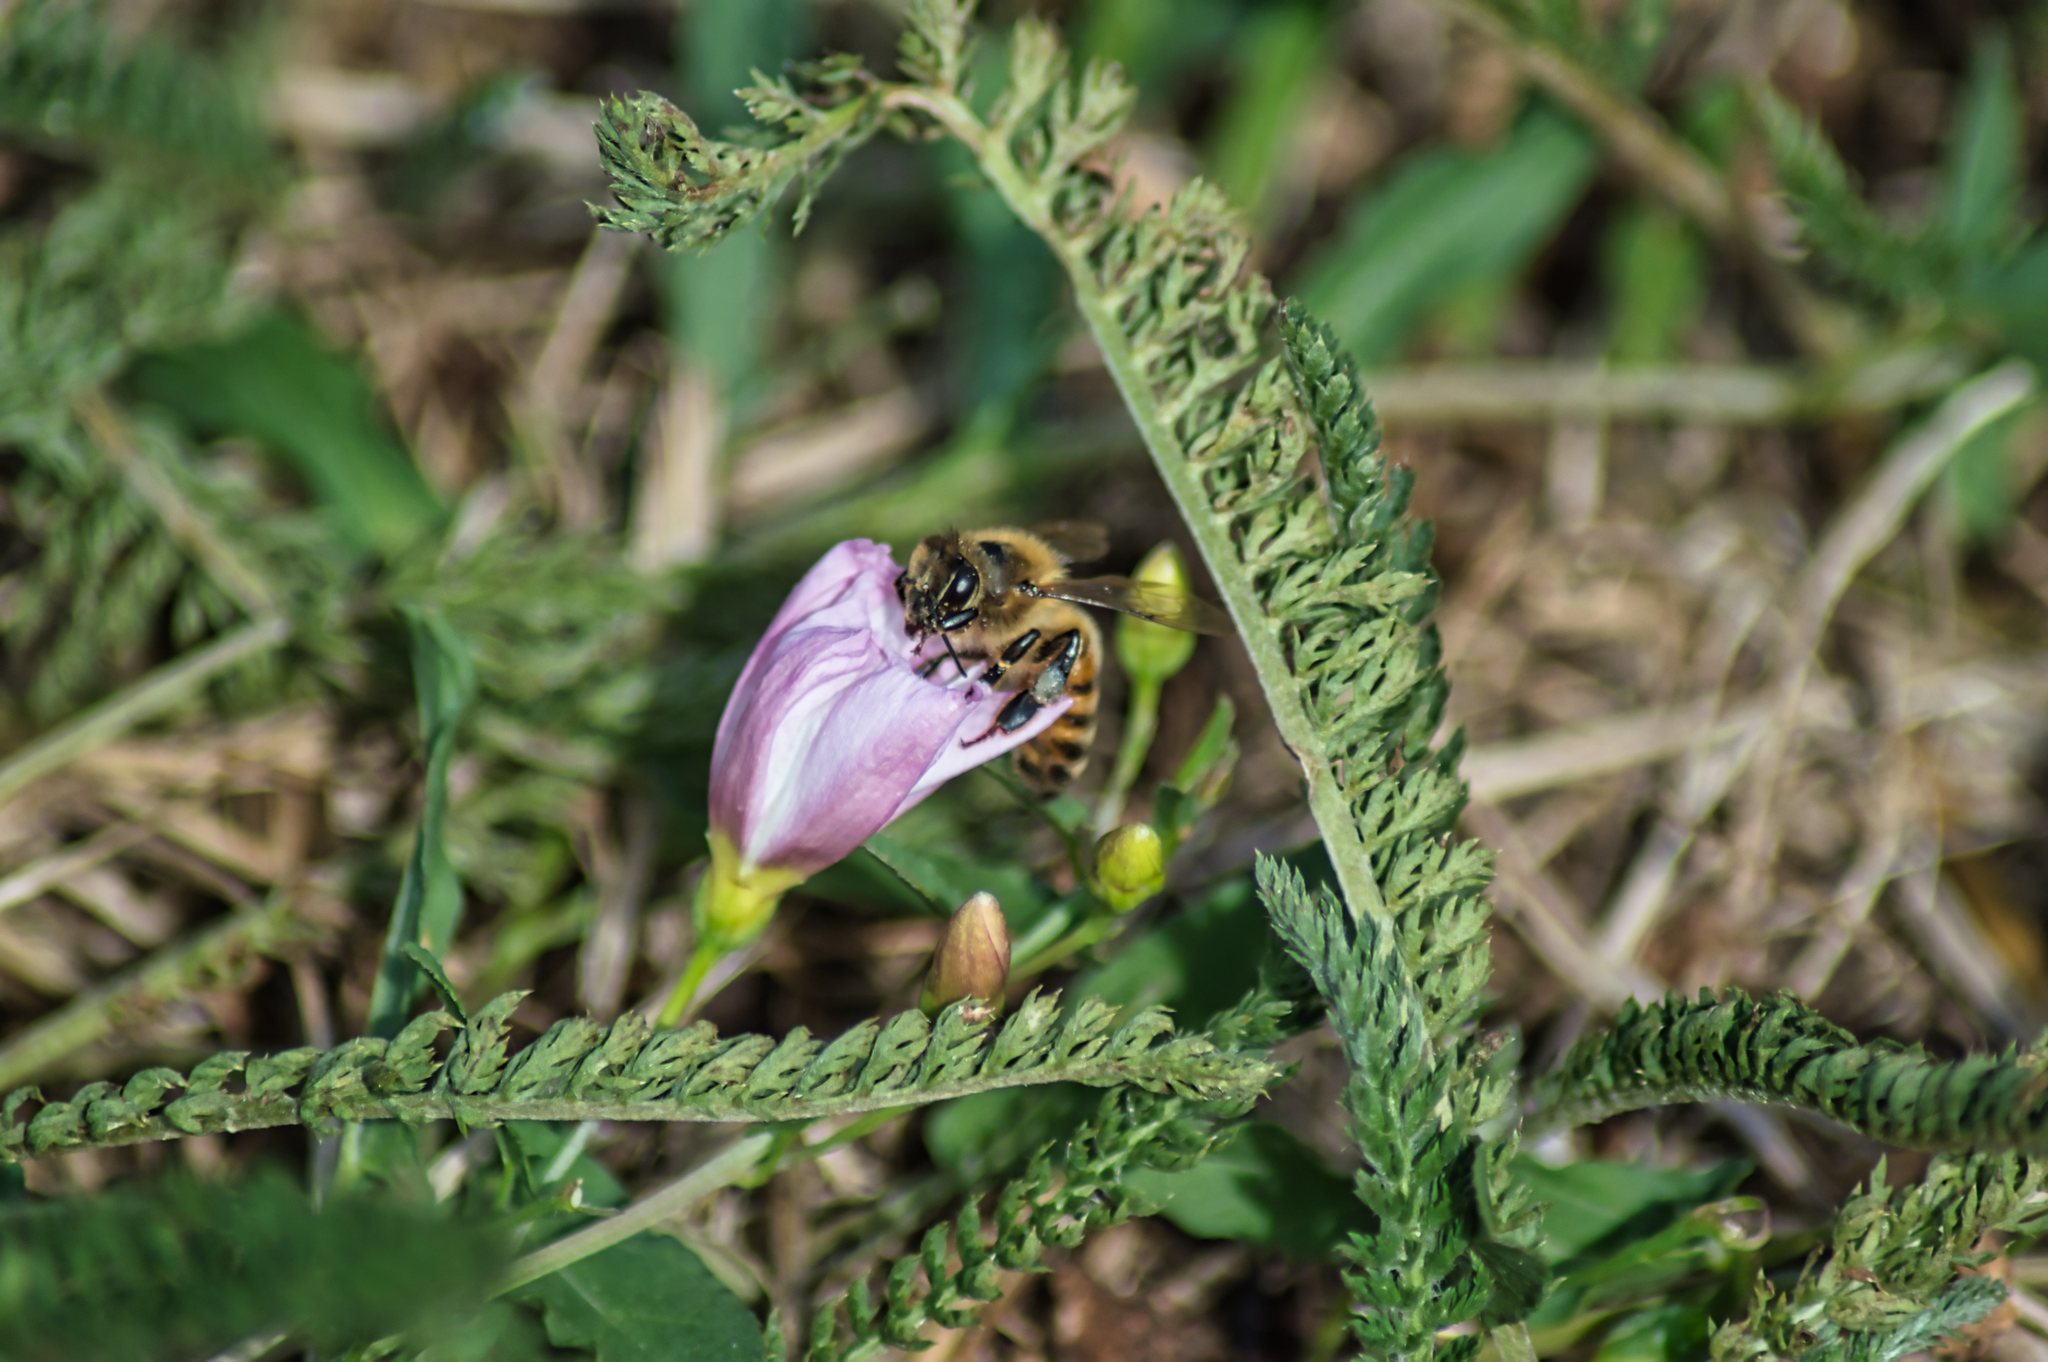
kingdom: Animalia
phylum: Arthropoda
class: Insecta
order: Hymenoptera
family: Apidae
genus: Apis
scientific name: Apis mellifera
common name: Honey bee
